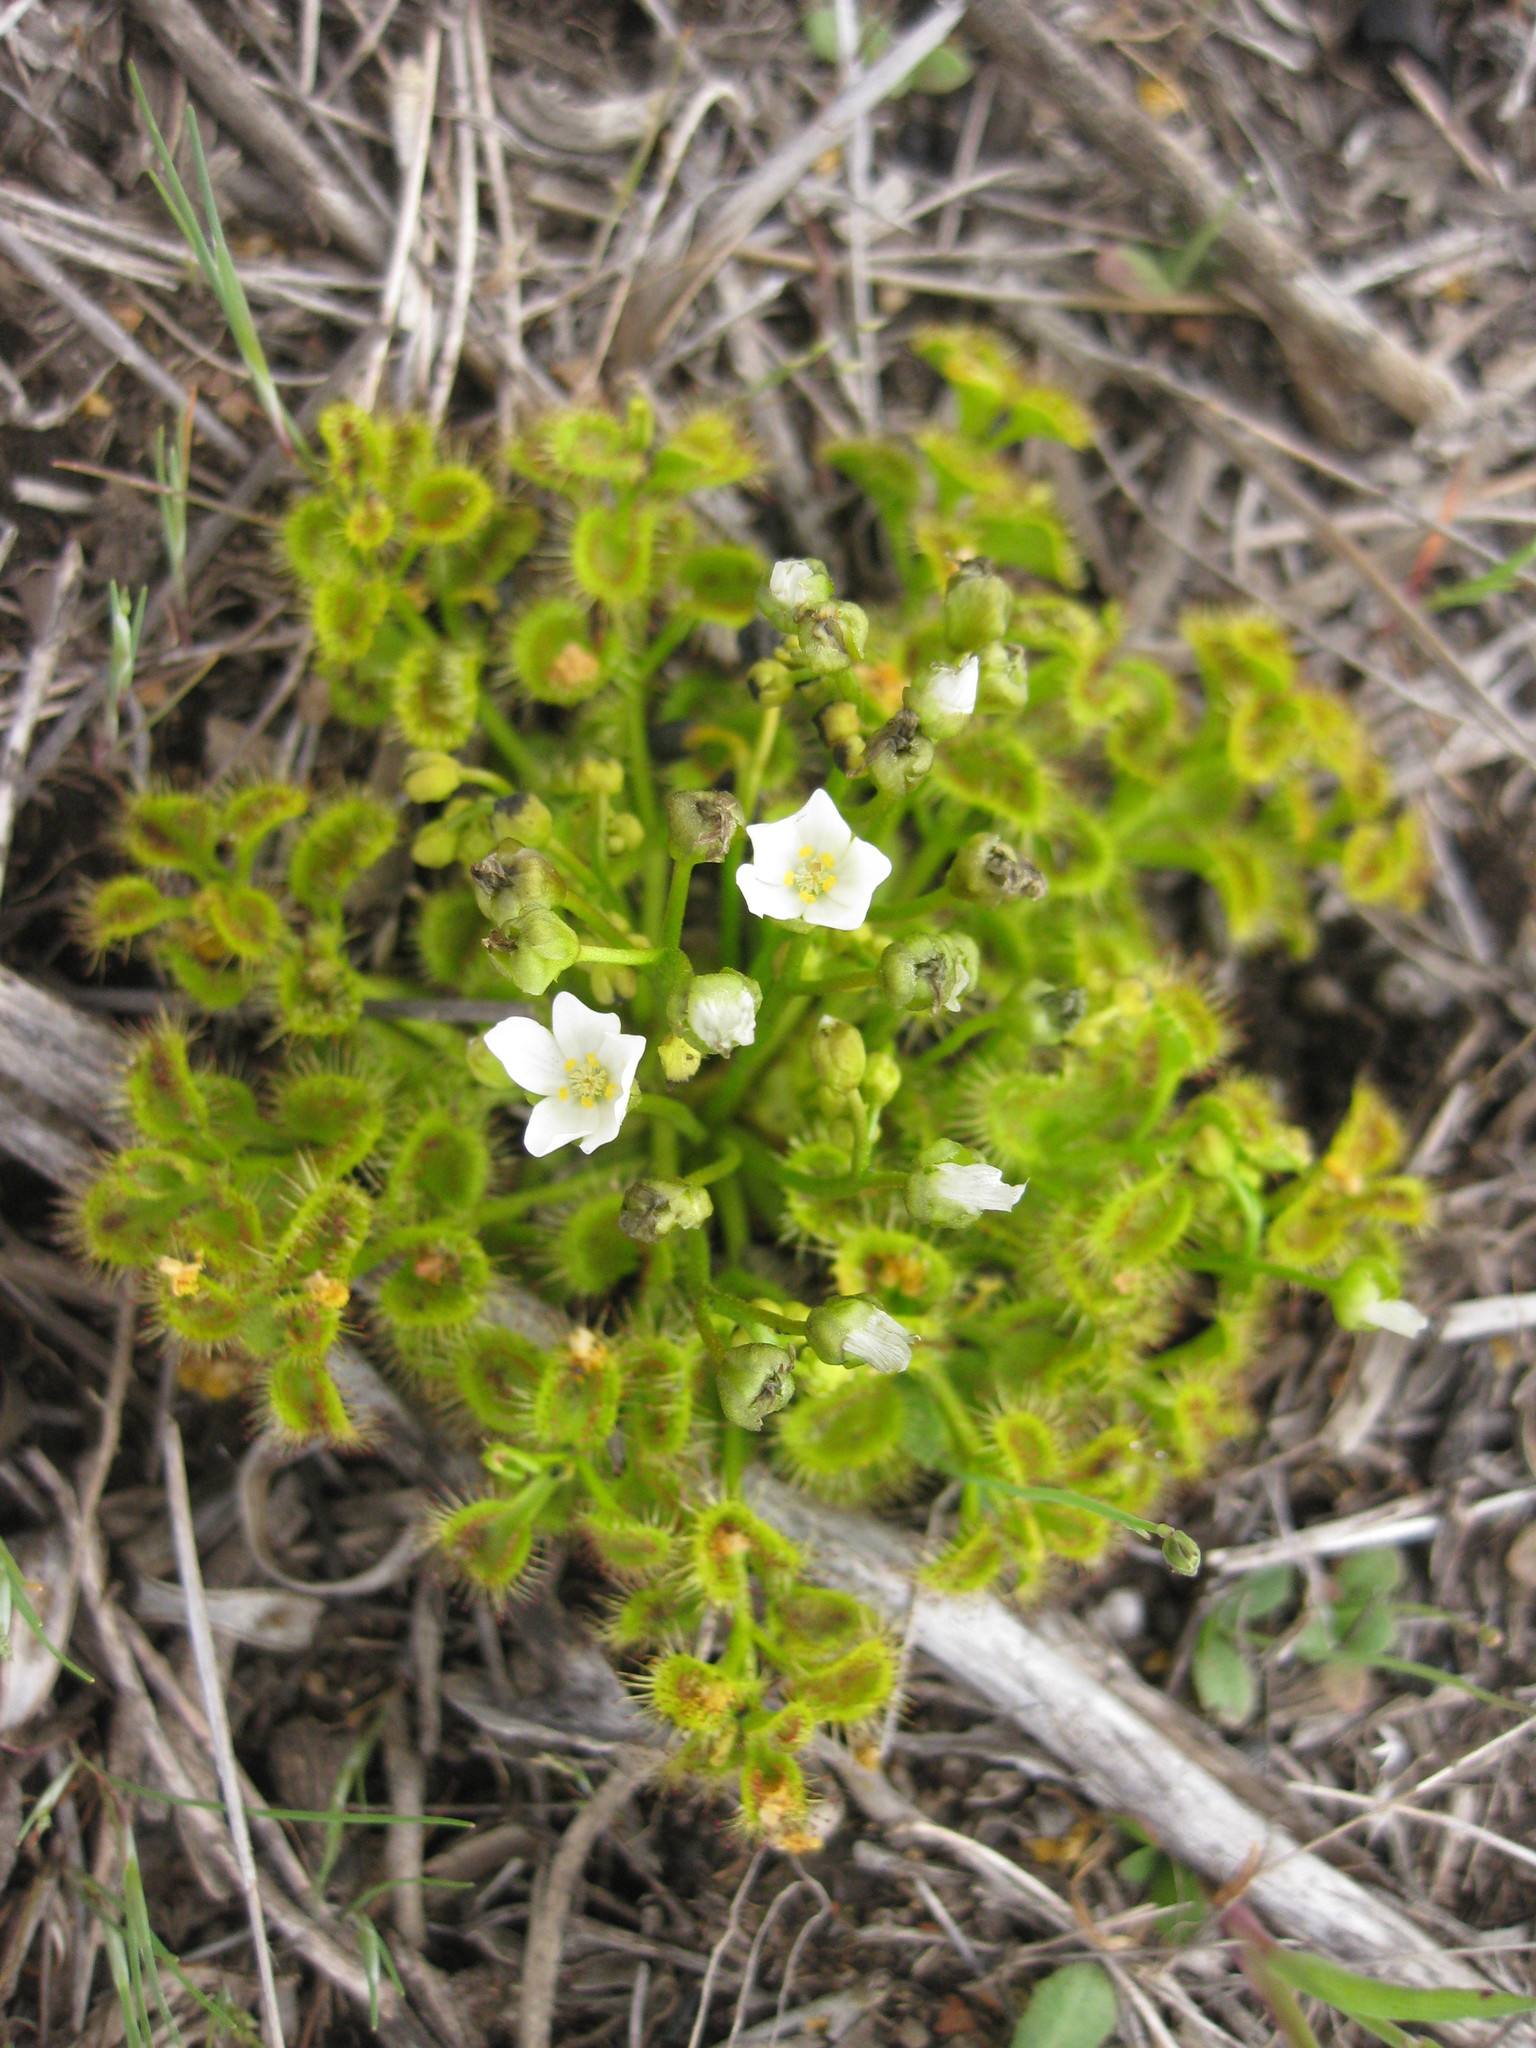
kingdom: Plantae
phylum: Tracheophyta
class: Magnoliopsida
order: Caryophyllales
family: Droseraceae
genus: Drosera
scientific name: Drosera rupicola
